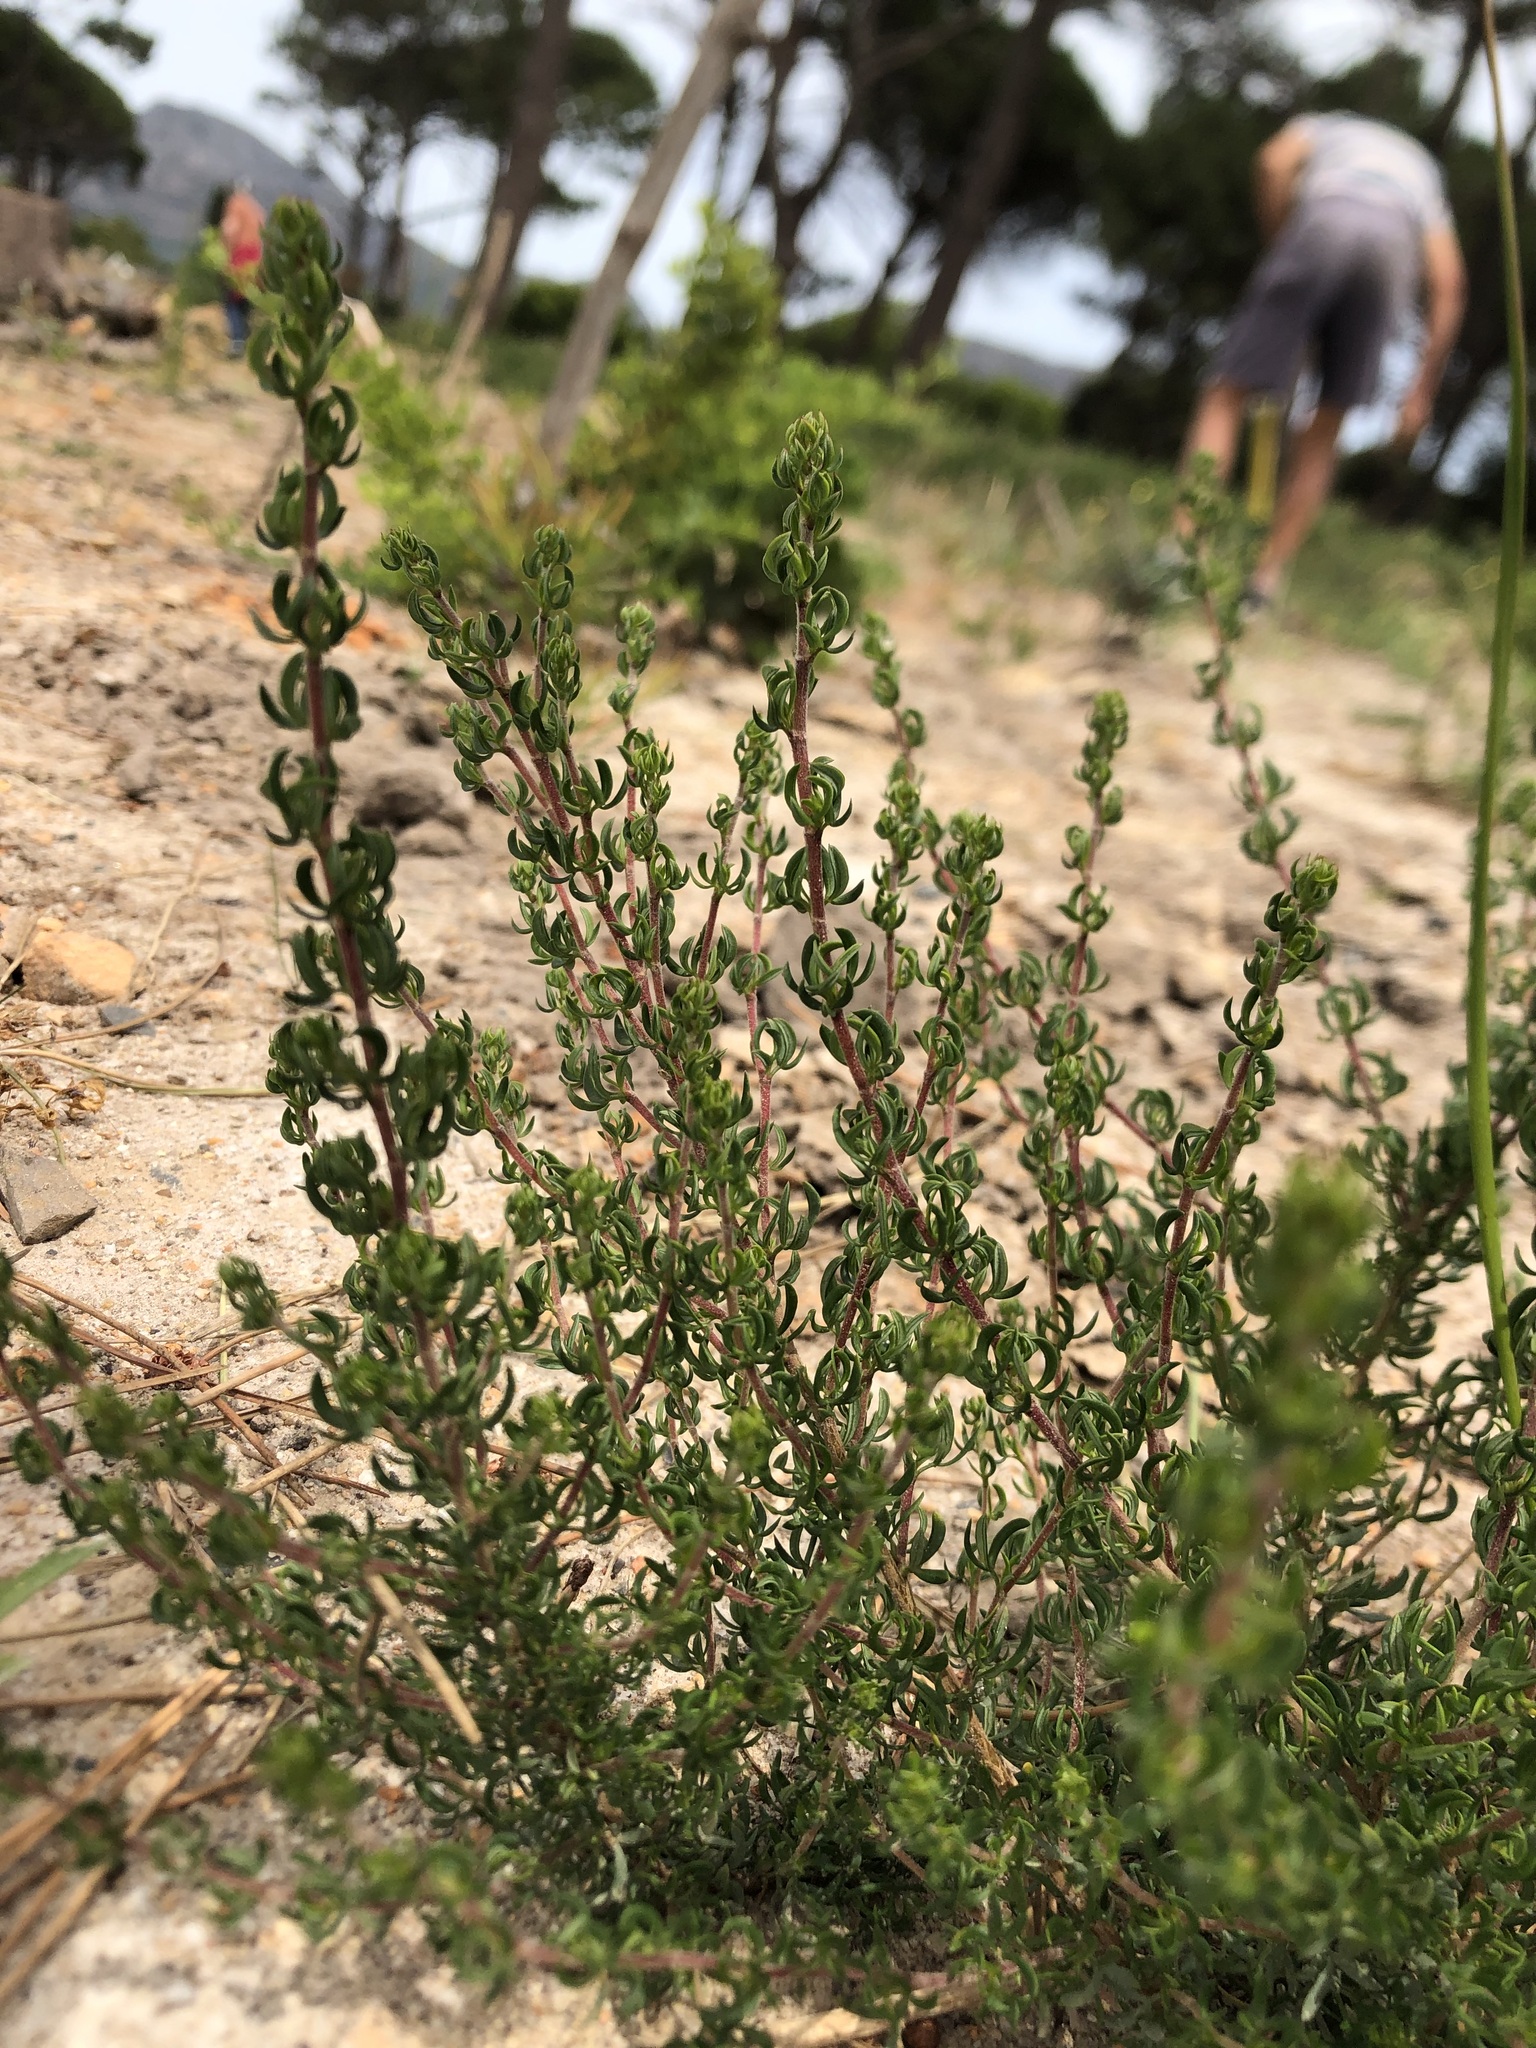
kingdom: Plantae
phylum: Tracheophyta
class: Magnoliopsida
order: Rosales
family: Rosaceae
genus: Cliffortia
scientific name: Cliffortia falcata
